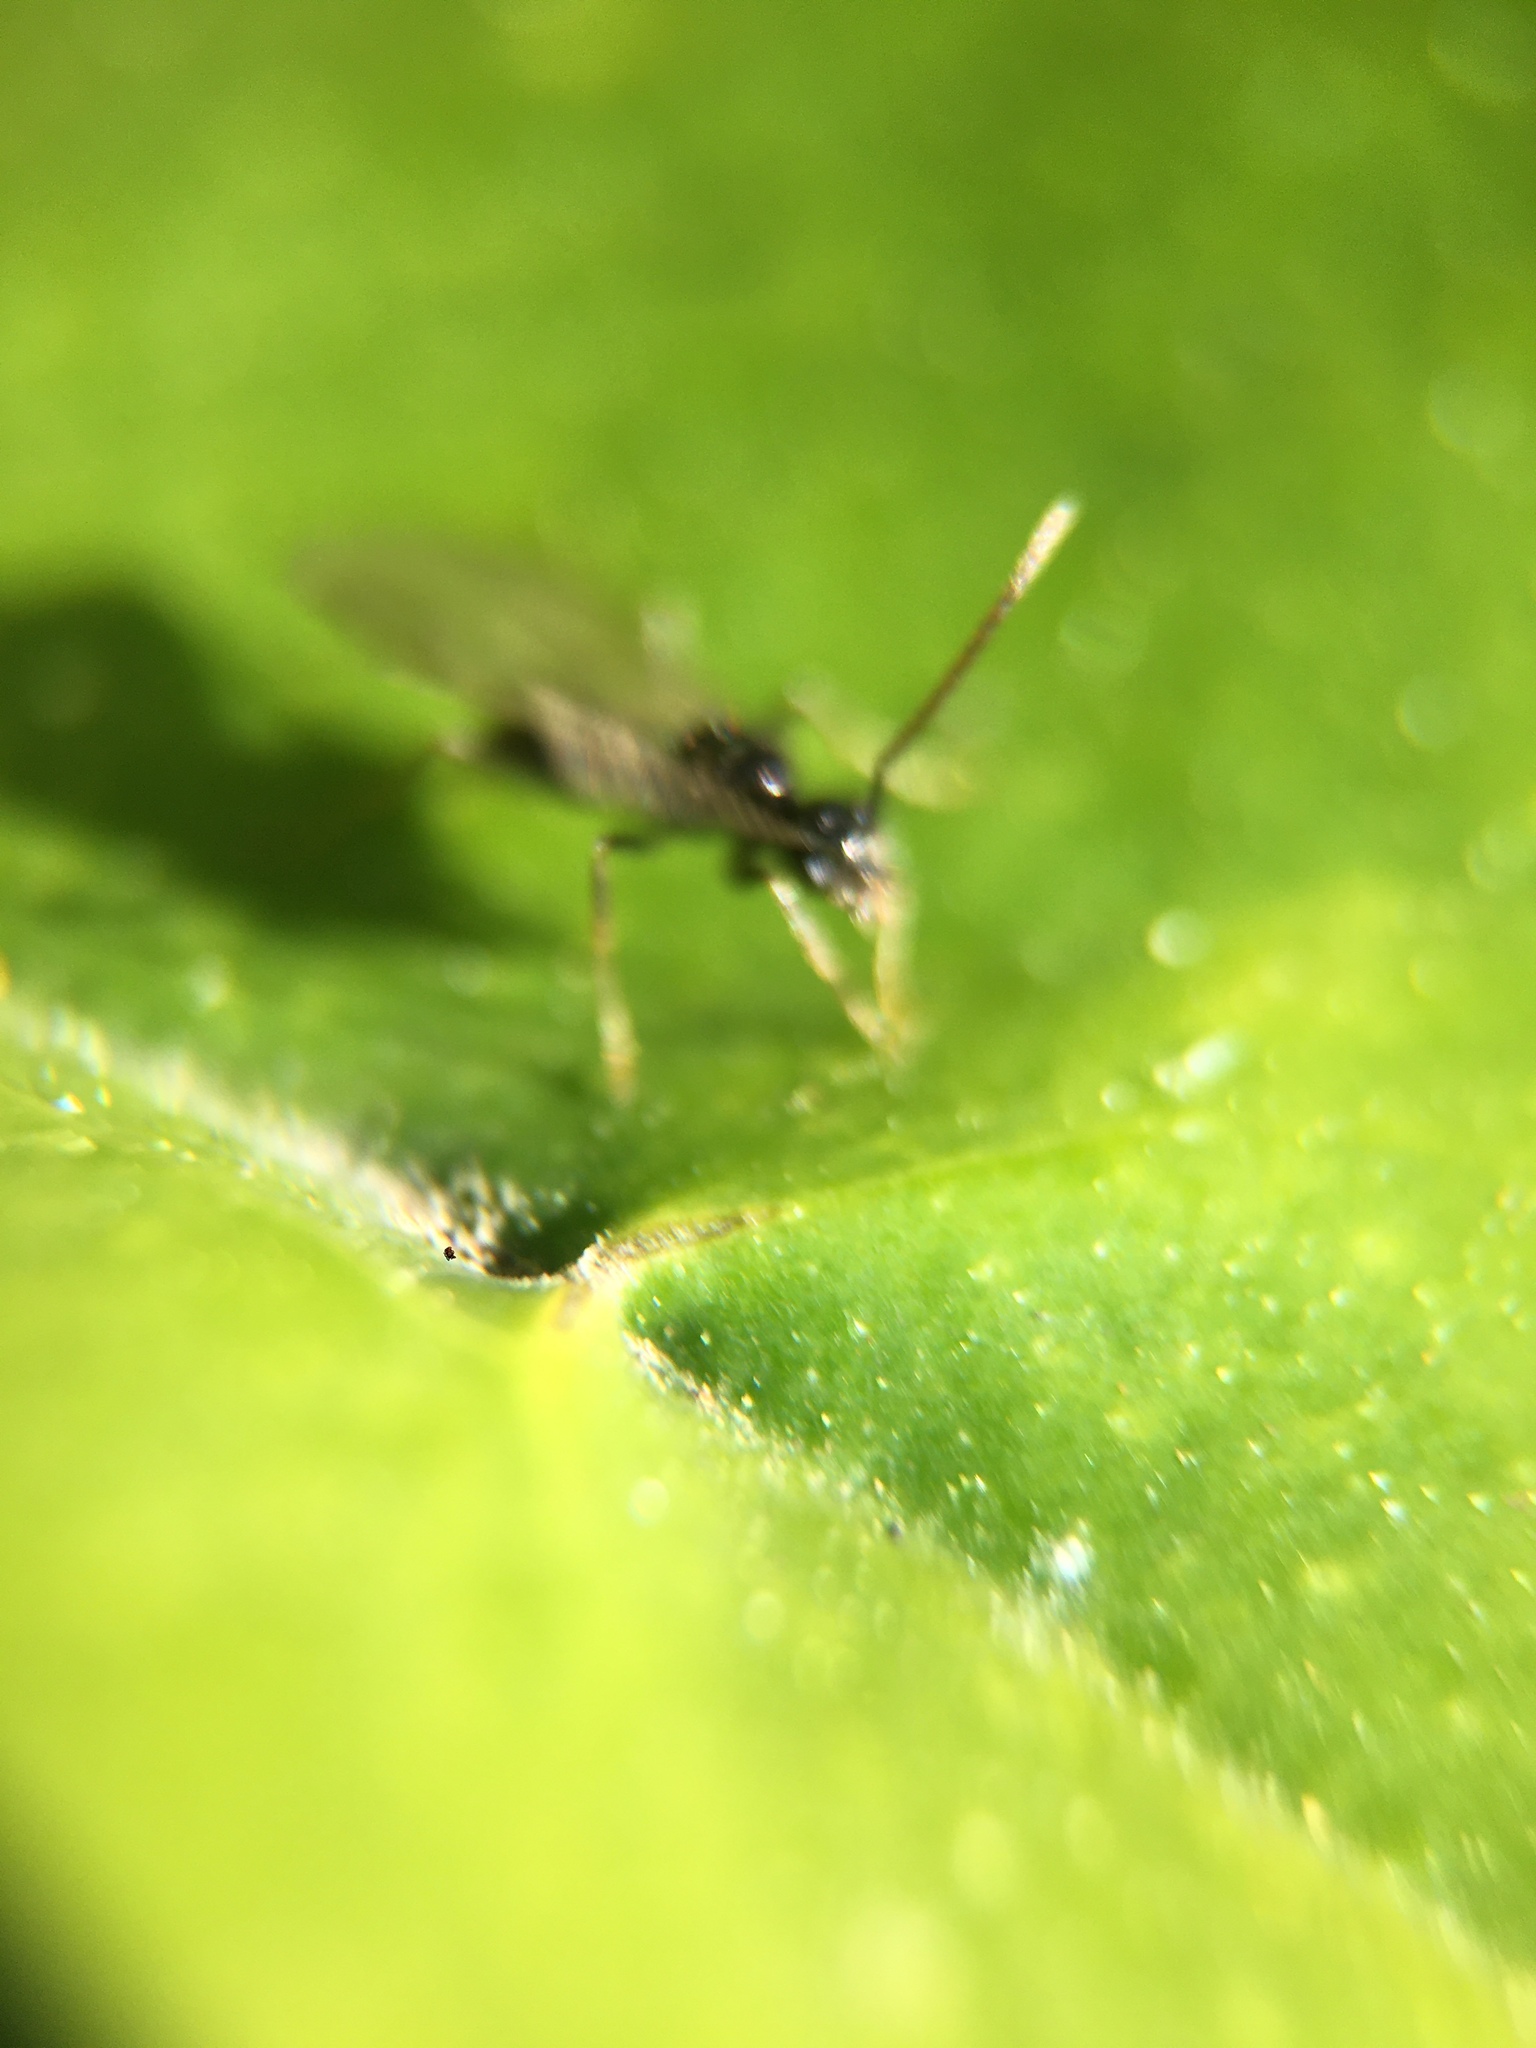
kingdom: Animalia
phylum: Arthropoda
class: Insecta
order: Hymenoptera
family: Formicidae
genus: Prenolepis
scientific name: Prenolepis imparis
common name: Small honey ant
